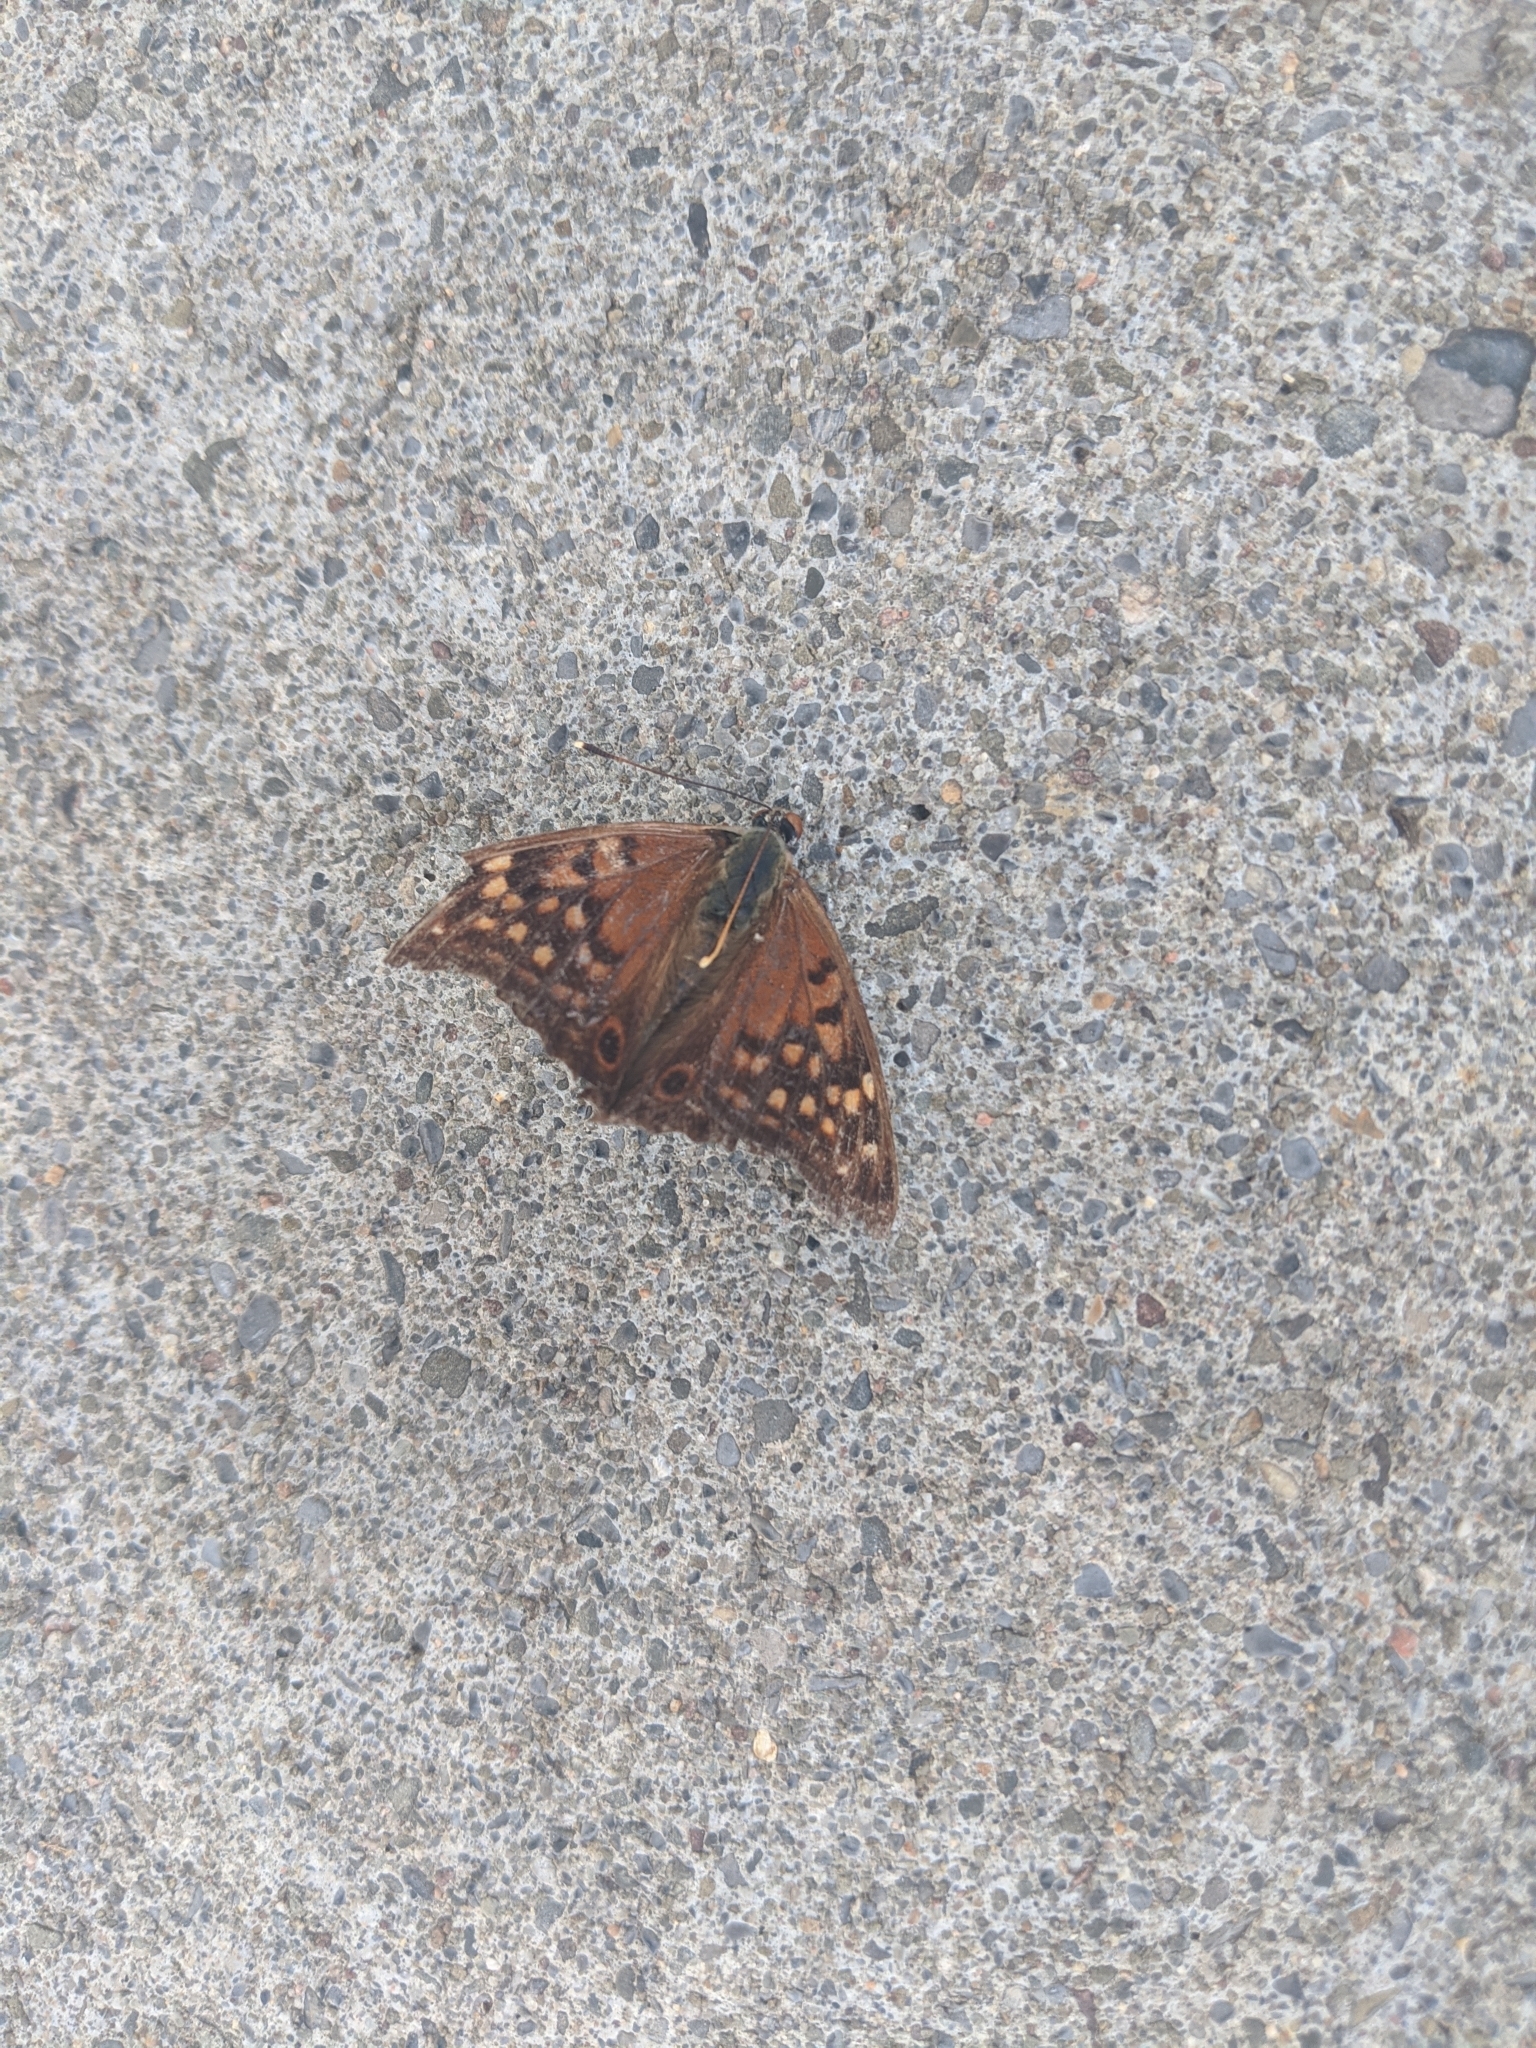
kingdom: Animalia
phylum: Arthropoda
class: Insecta
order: Lepidoptera
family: Nymphalidae
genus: Asterocampa
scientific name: Asterocampa clyton
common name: Tawny emperor
